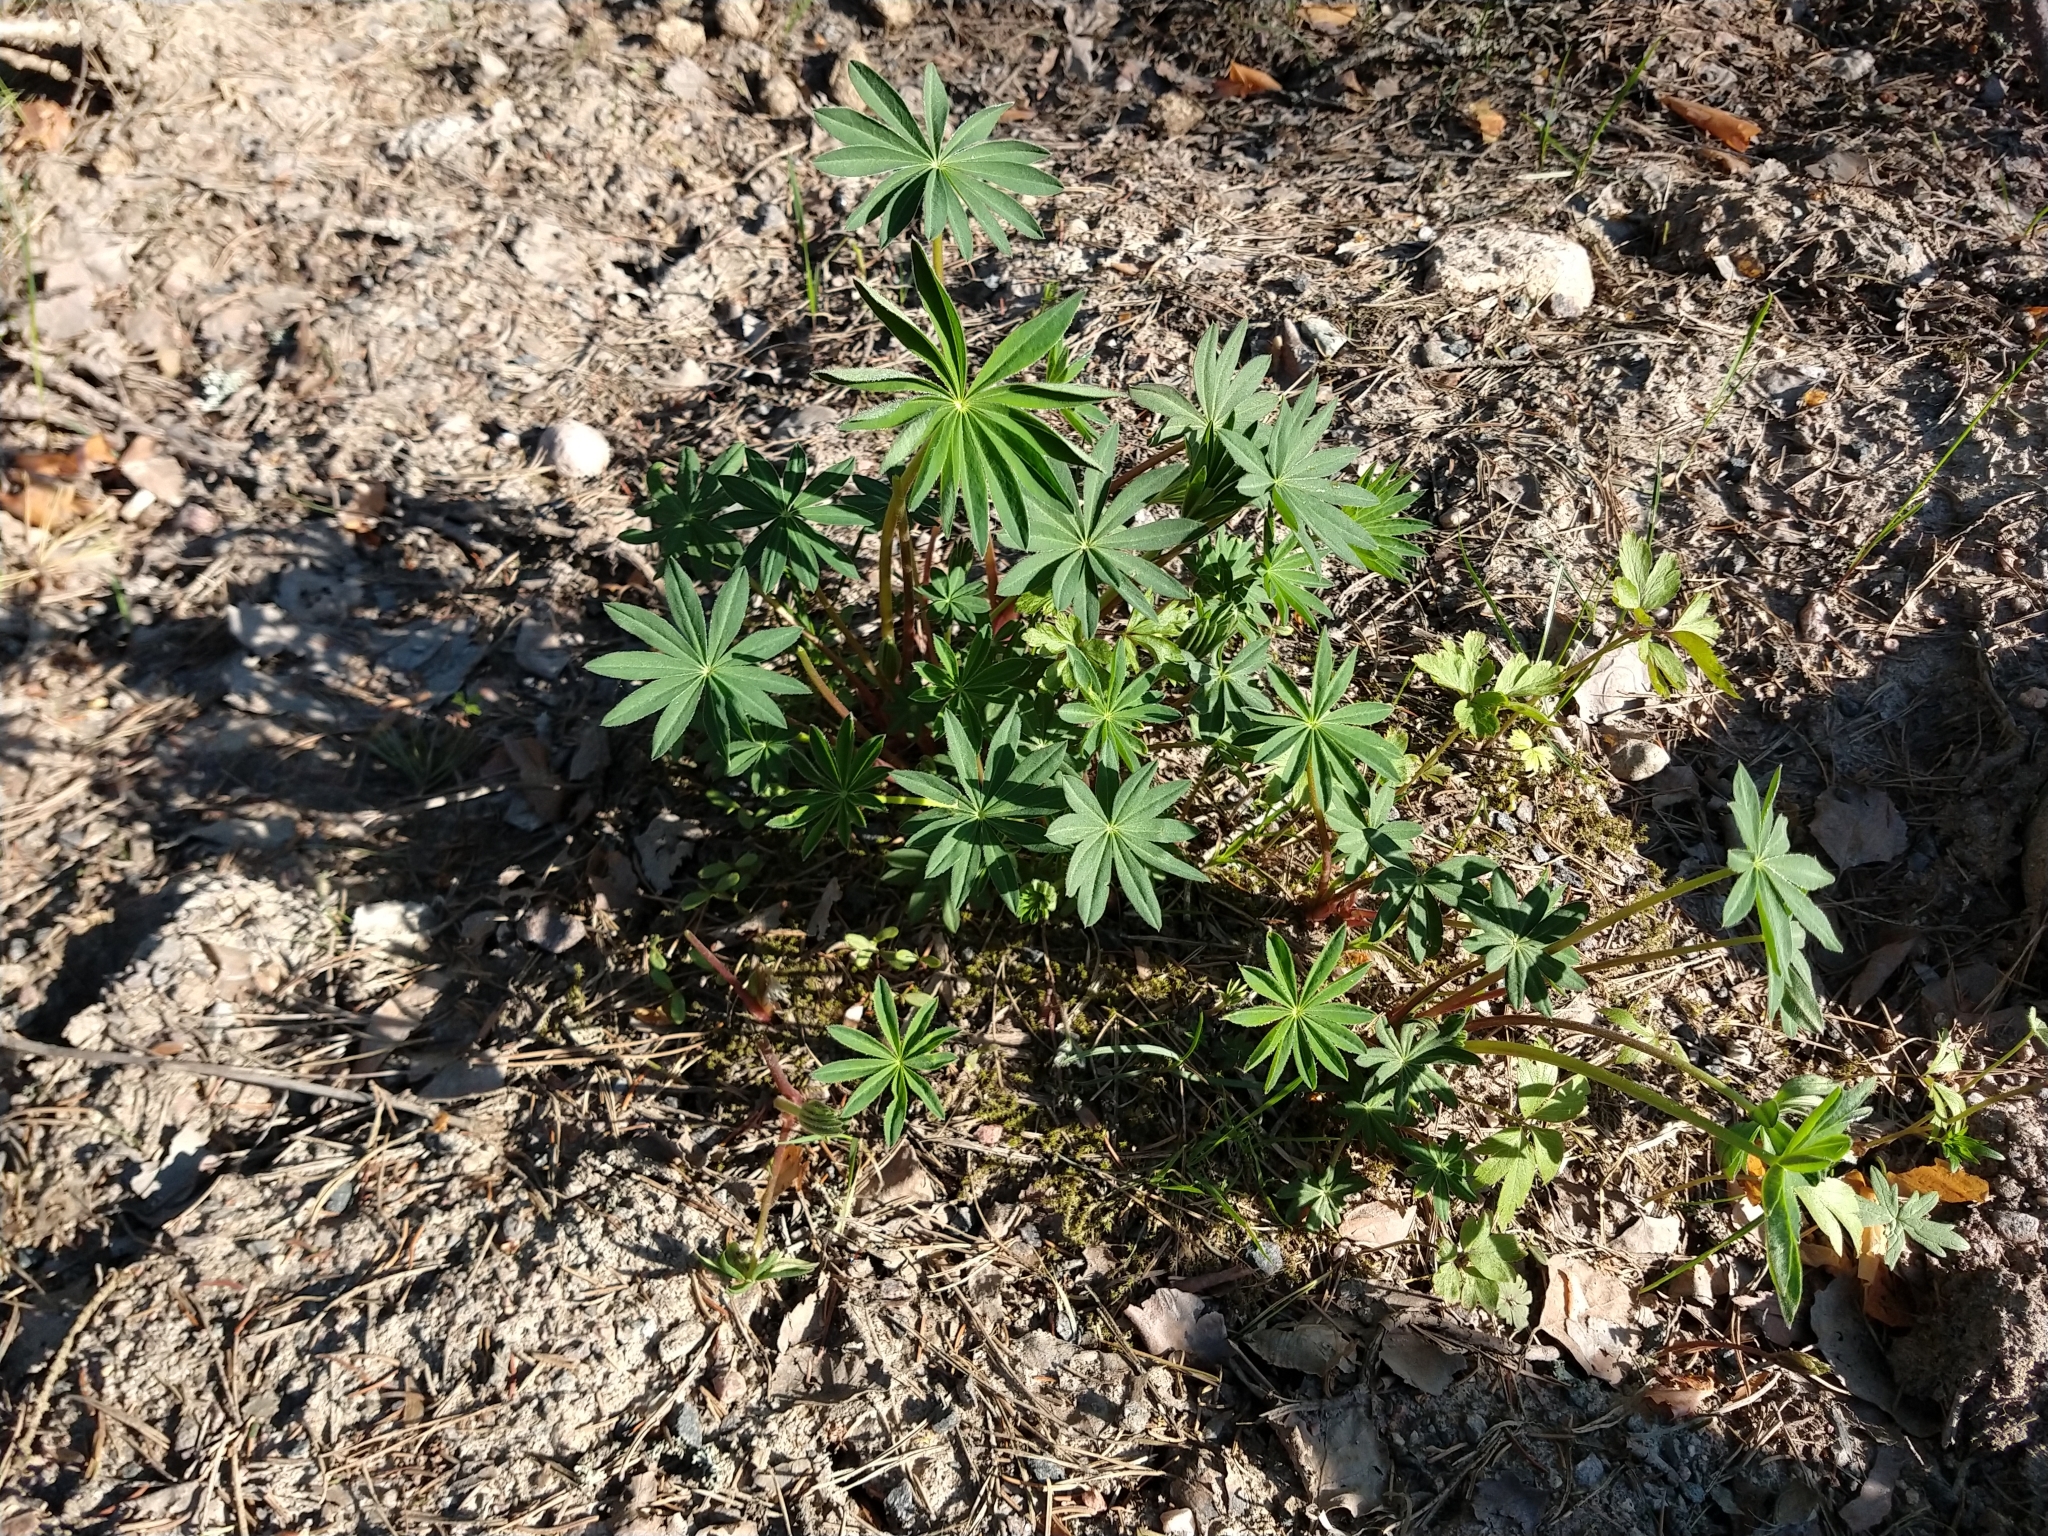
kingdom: Plantae
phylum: Tracheophyta
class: Magnoliopsida
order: Fabales
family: Fabaceae
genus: Lupinus
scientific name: Lupinus polyphyllus
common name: Garden lupin
